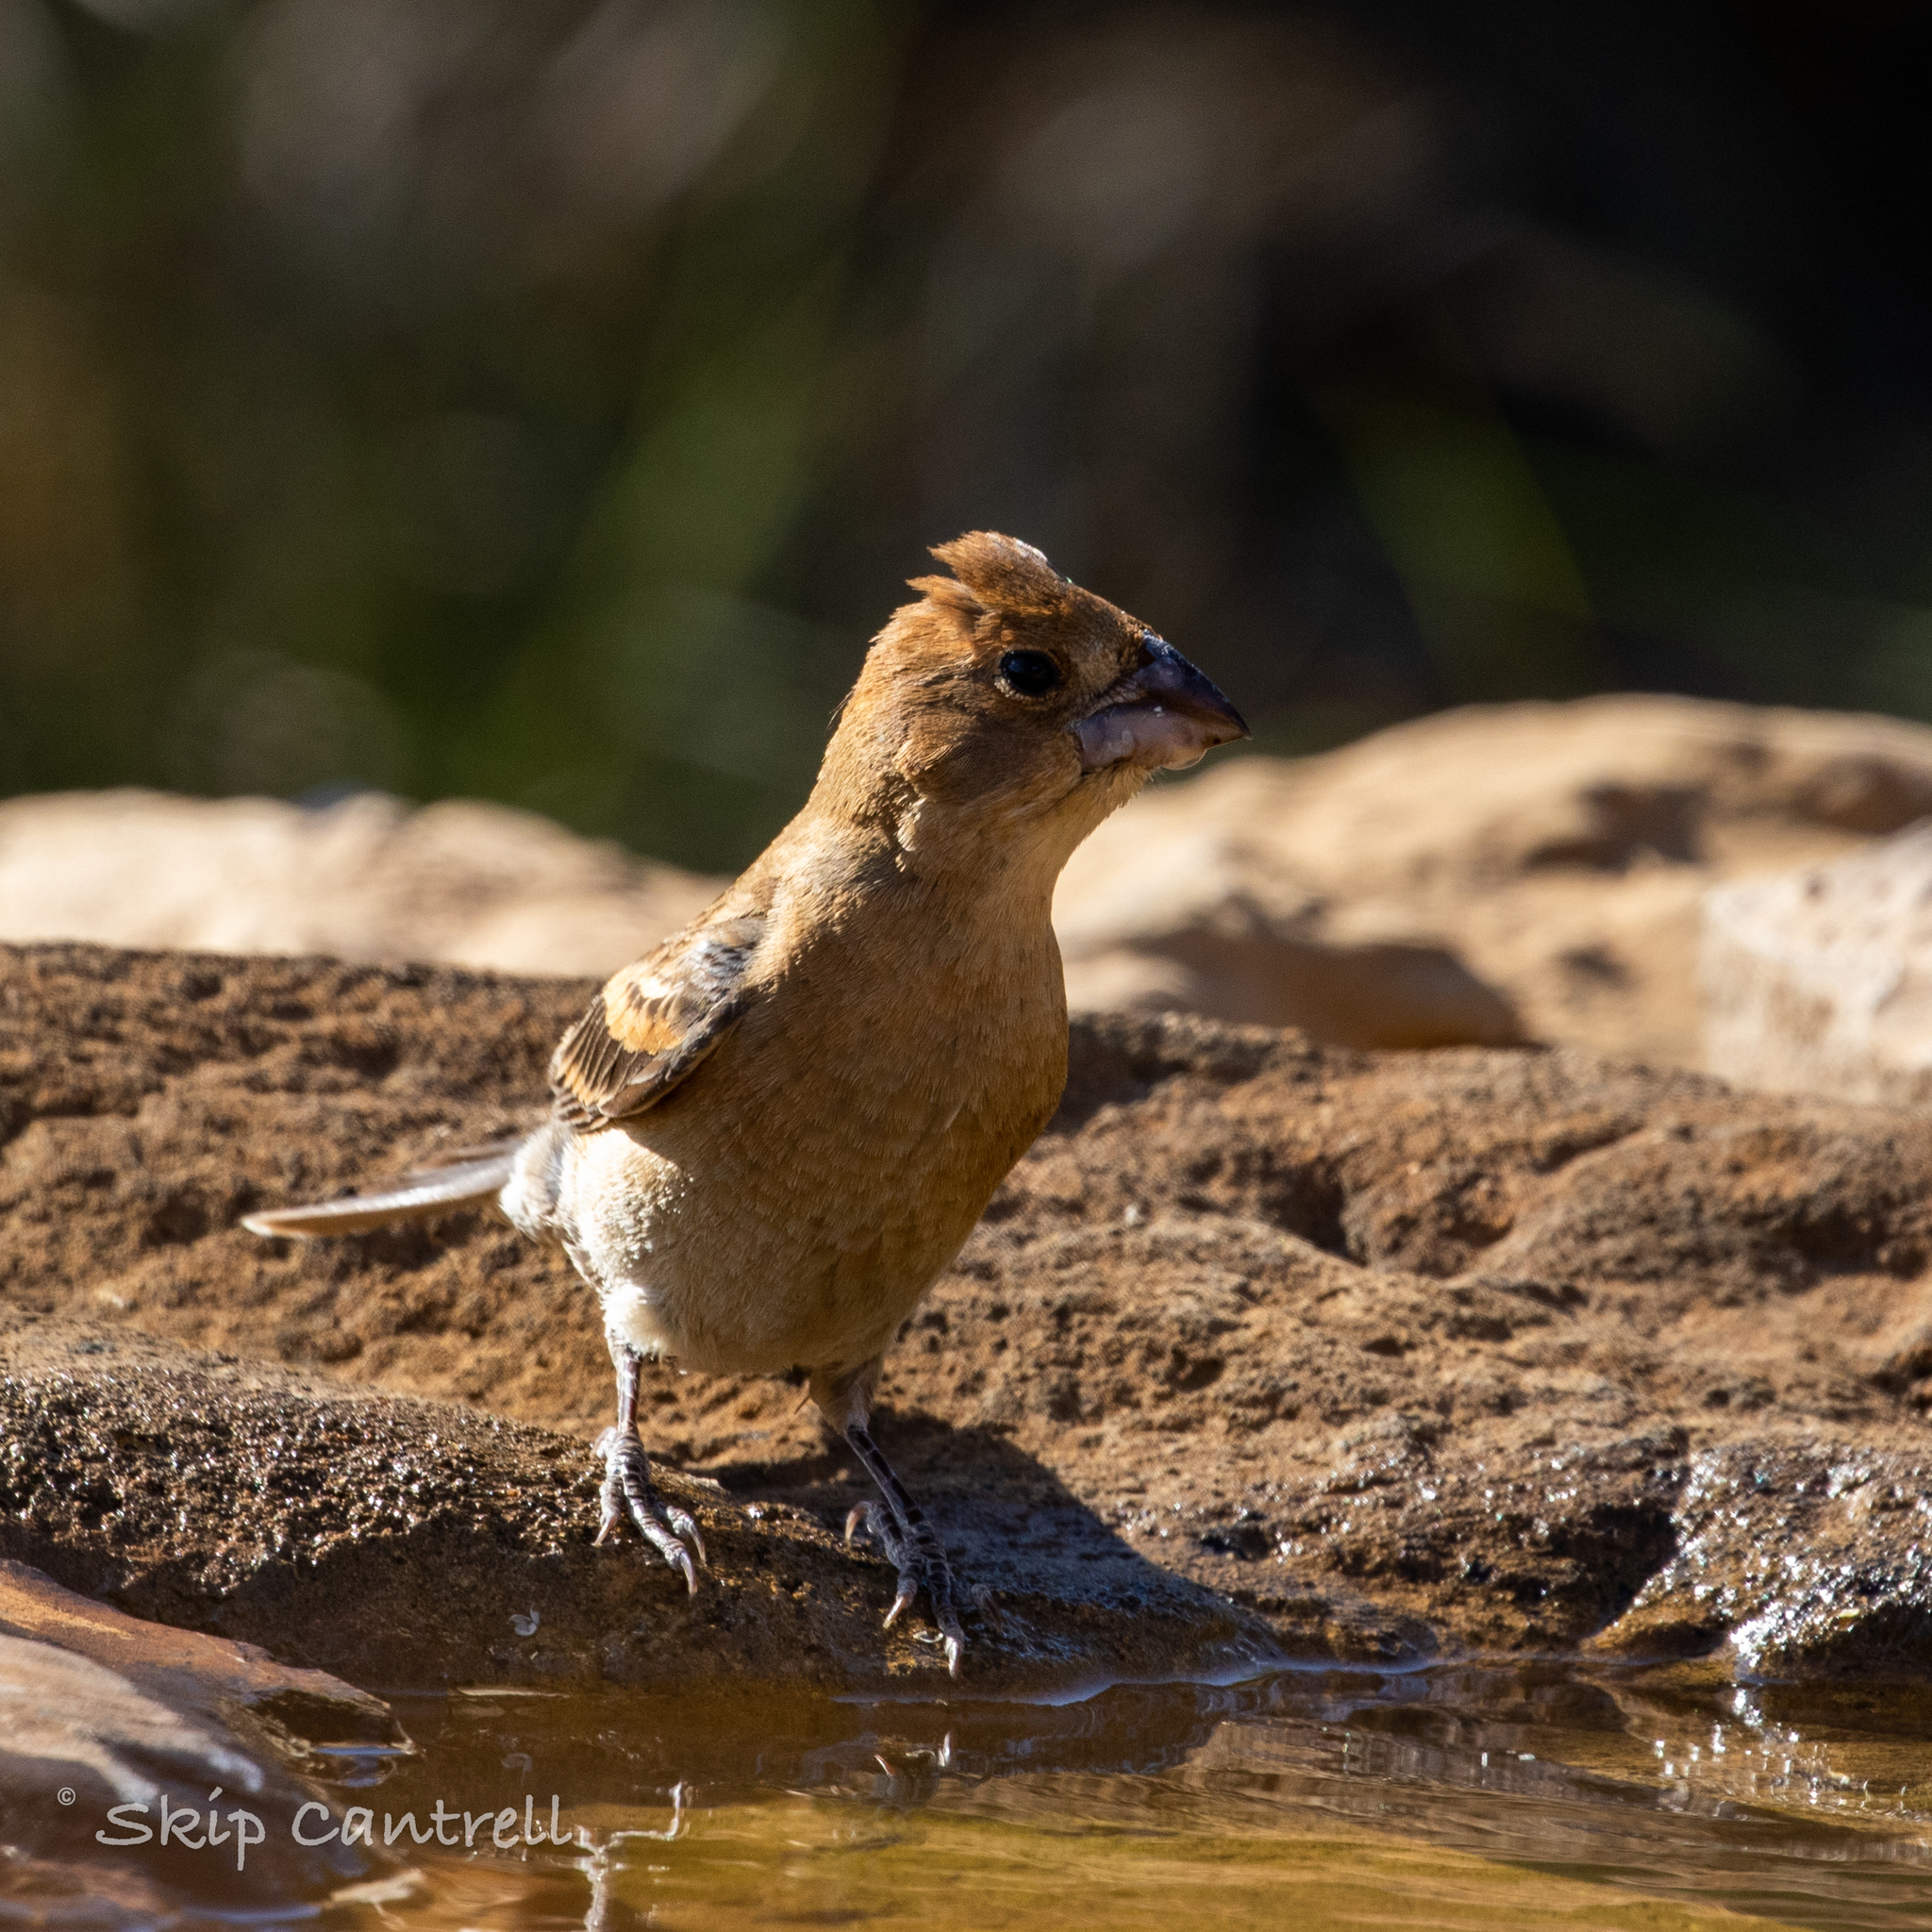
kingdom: Animalia
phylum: Chordata
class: Aves
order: Passeriformes
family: Cardinalidae
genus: Passerina
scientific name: Passerina caerulea
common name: Blue grosbeak
